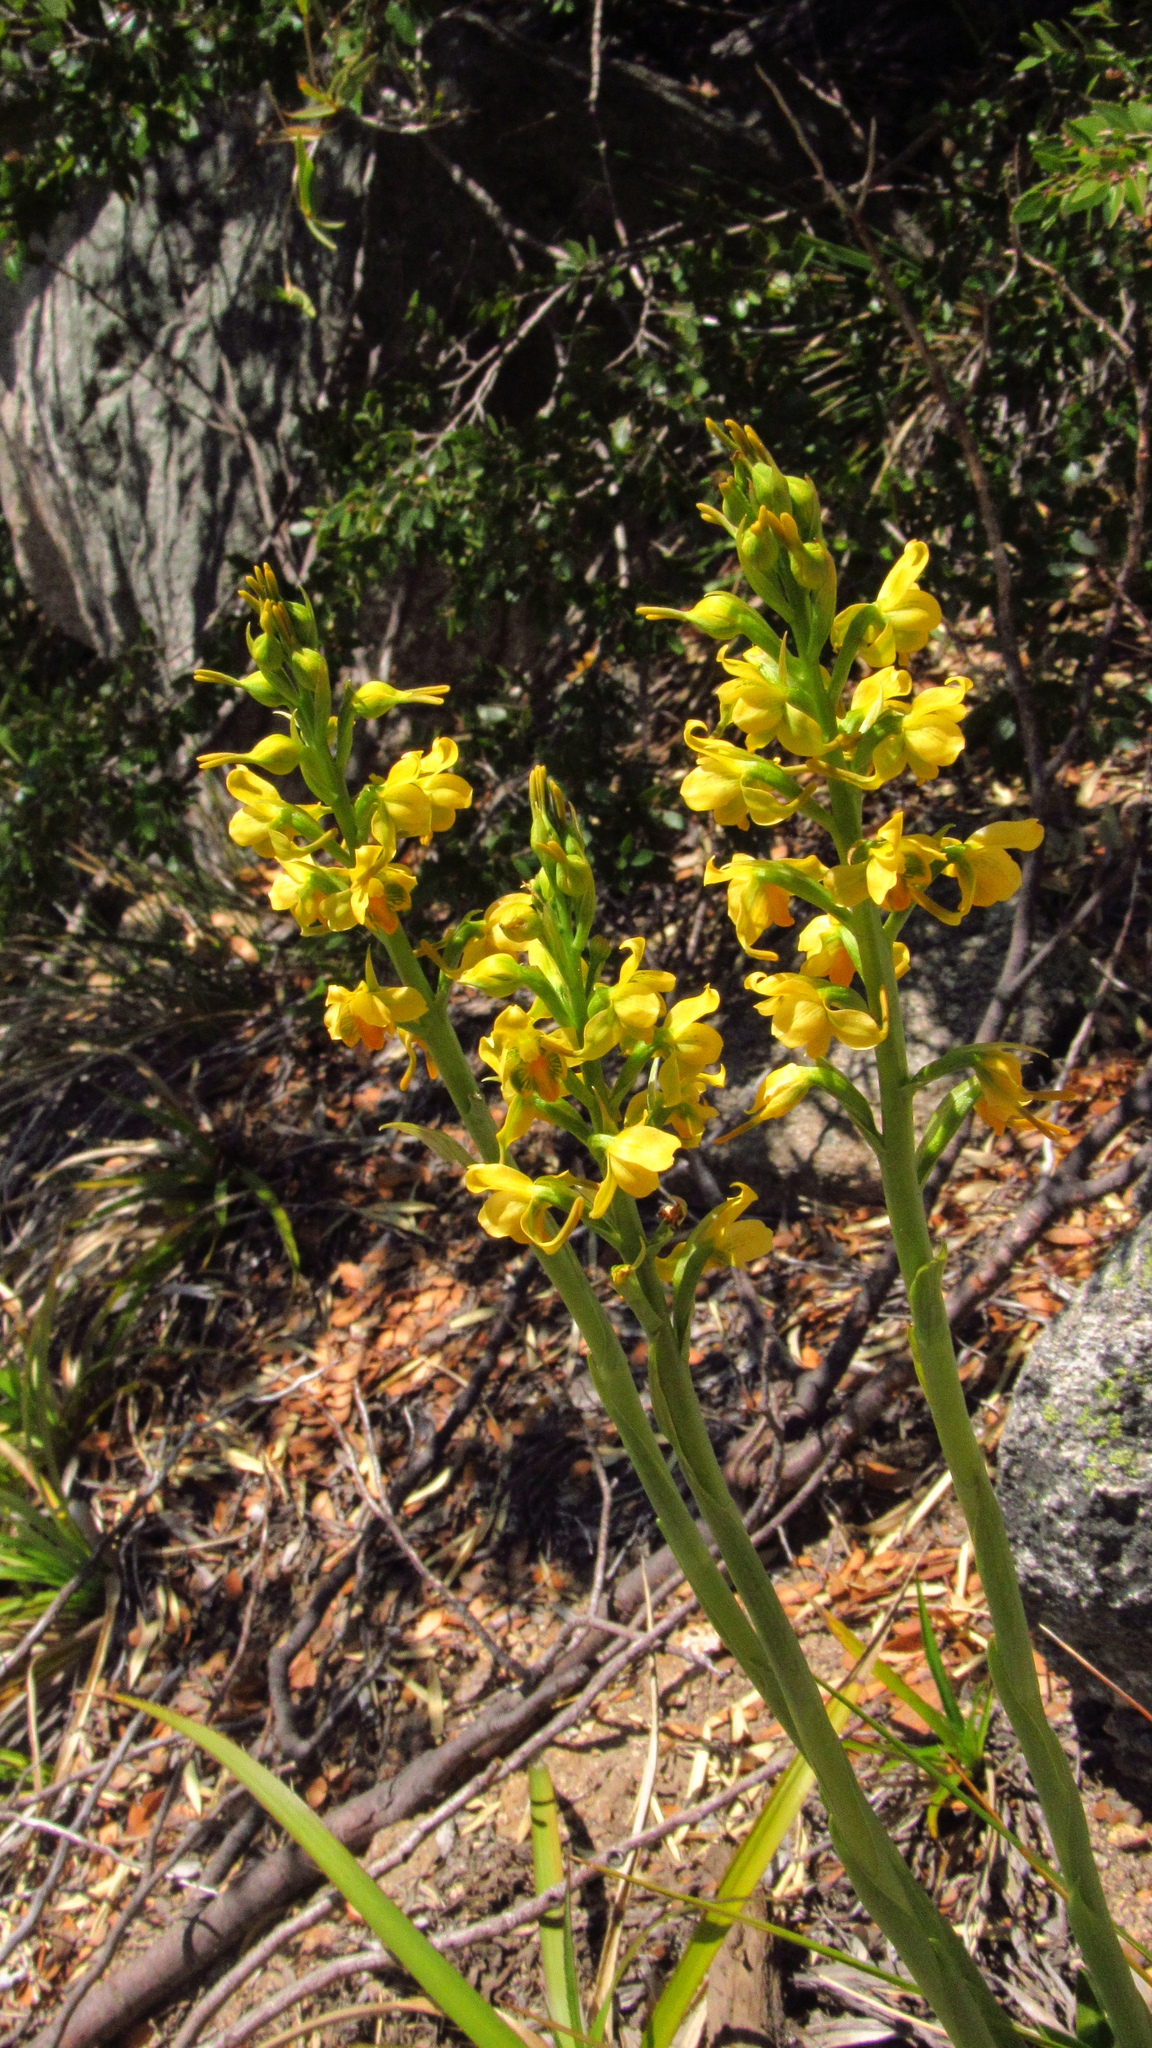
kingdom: Plantae
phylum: Tracheophyta
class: Liliopsida
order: Asparagales
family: Orchidaceae
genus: Gavilea
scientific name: Gavilea odoratissima
